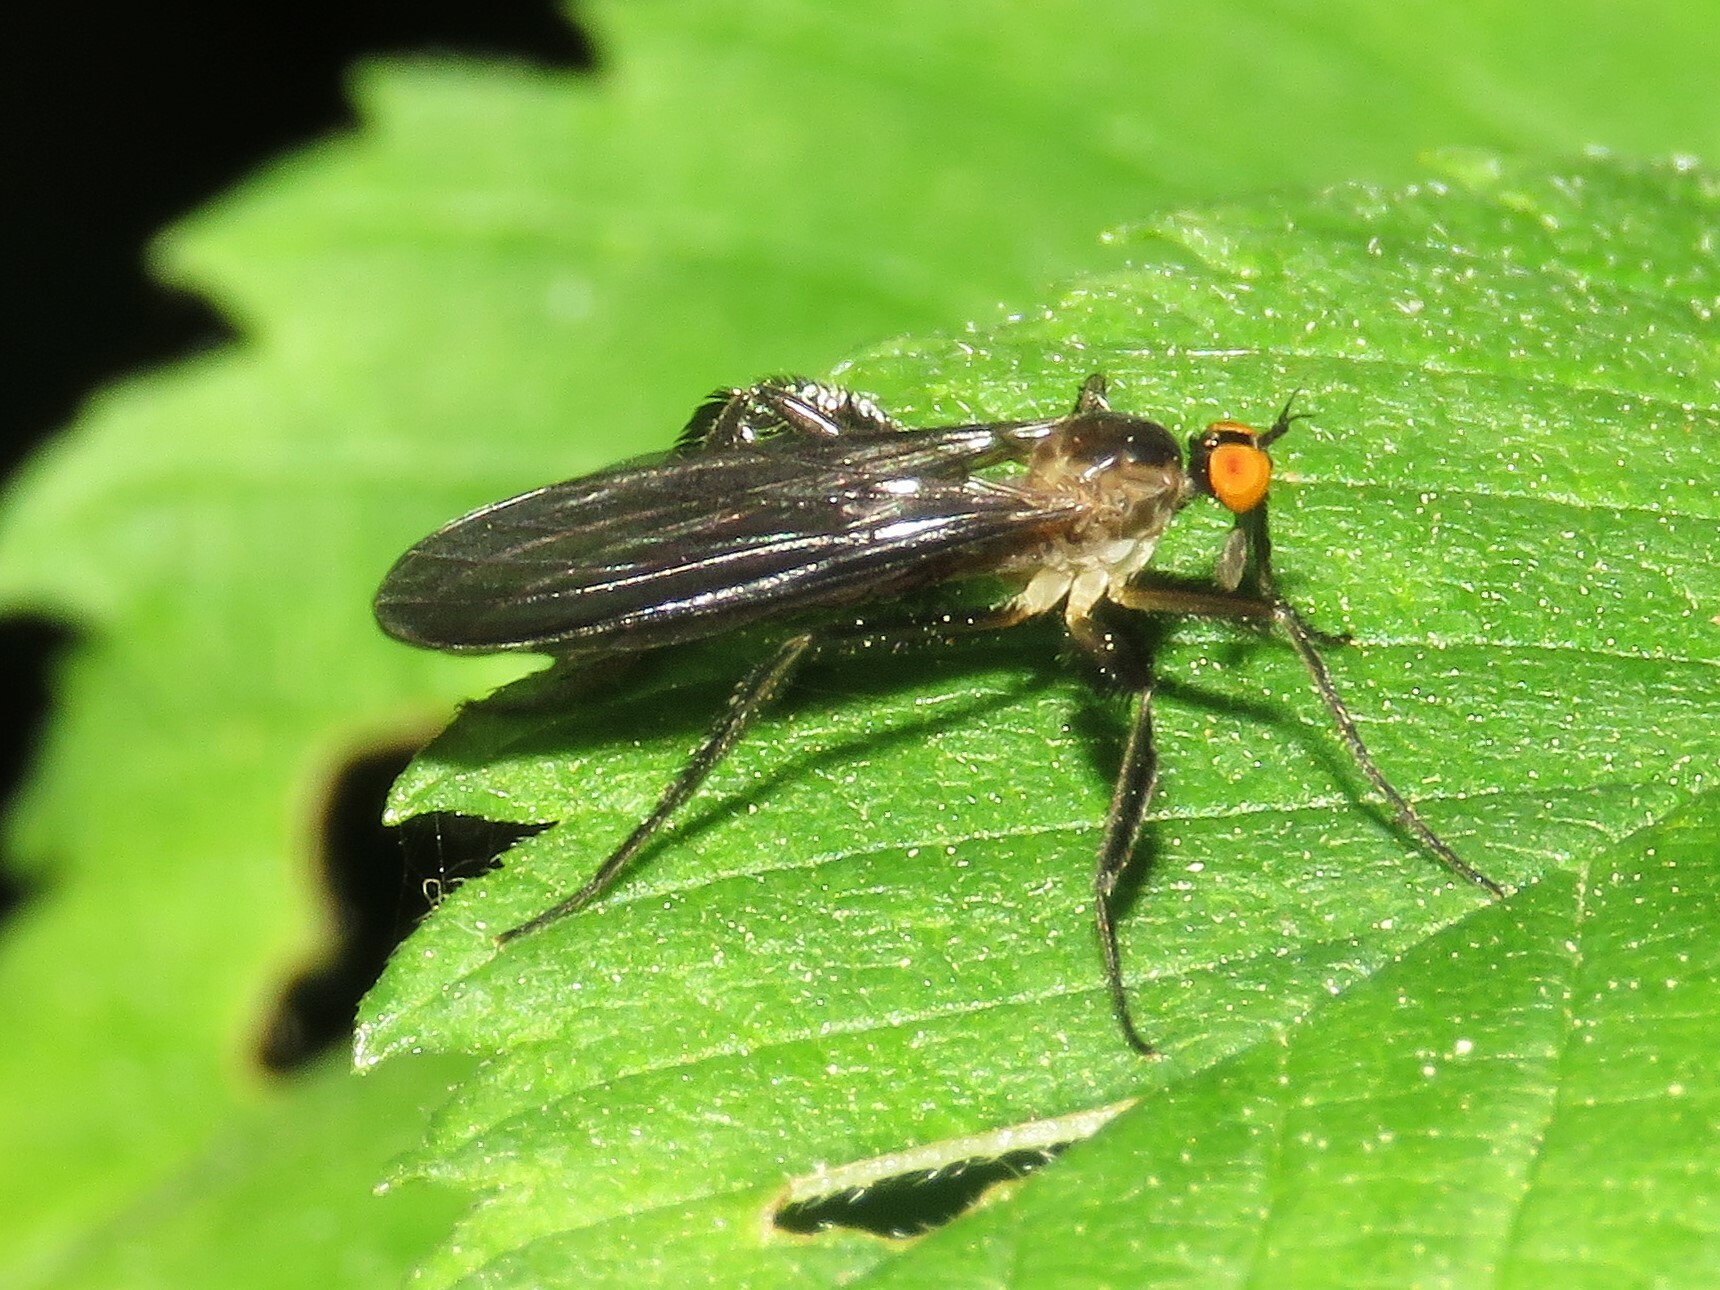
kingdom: Animalia
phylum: Arthropoda
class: Insecta
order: Diptera
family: Empididae
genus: Rhamphomyia
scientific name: Rhamphomyia longicauda
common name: Long-tailed dance fly
